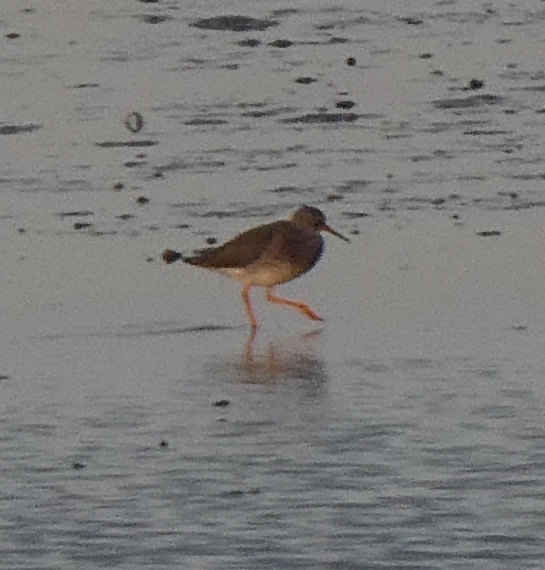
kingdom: Animalia
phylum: Chordata
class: Aves
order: Charadriiformes
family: Scolopacidae
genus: Tringa
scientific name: Tringa totanus
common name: Common redshank
